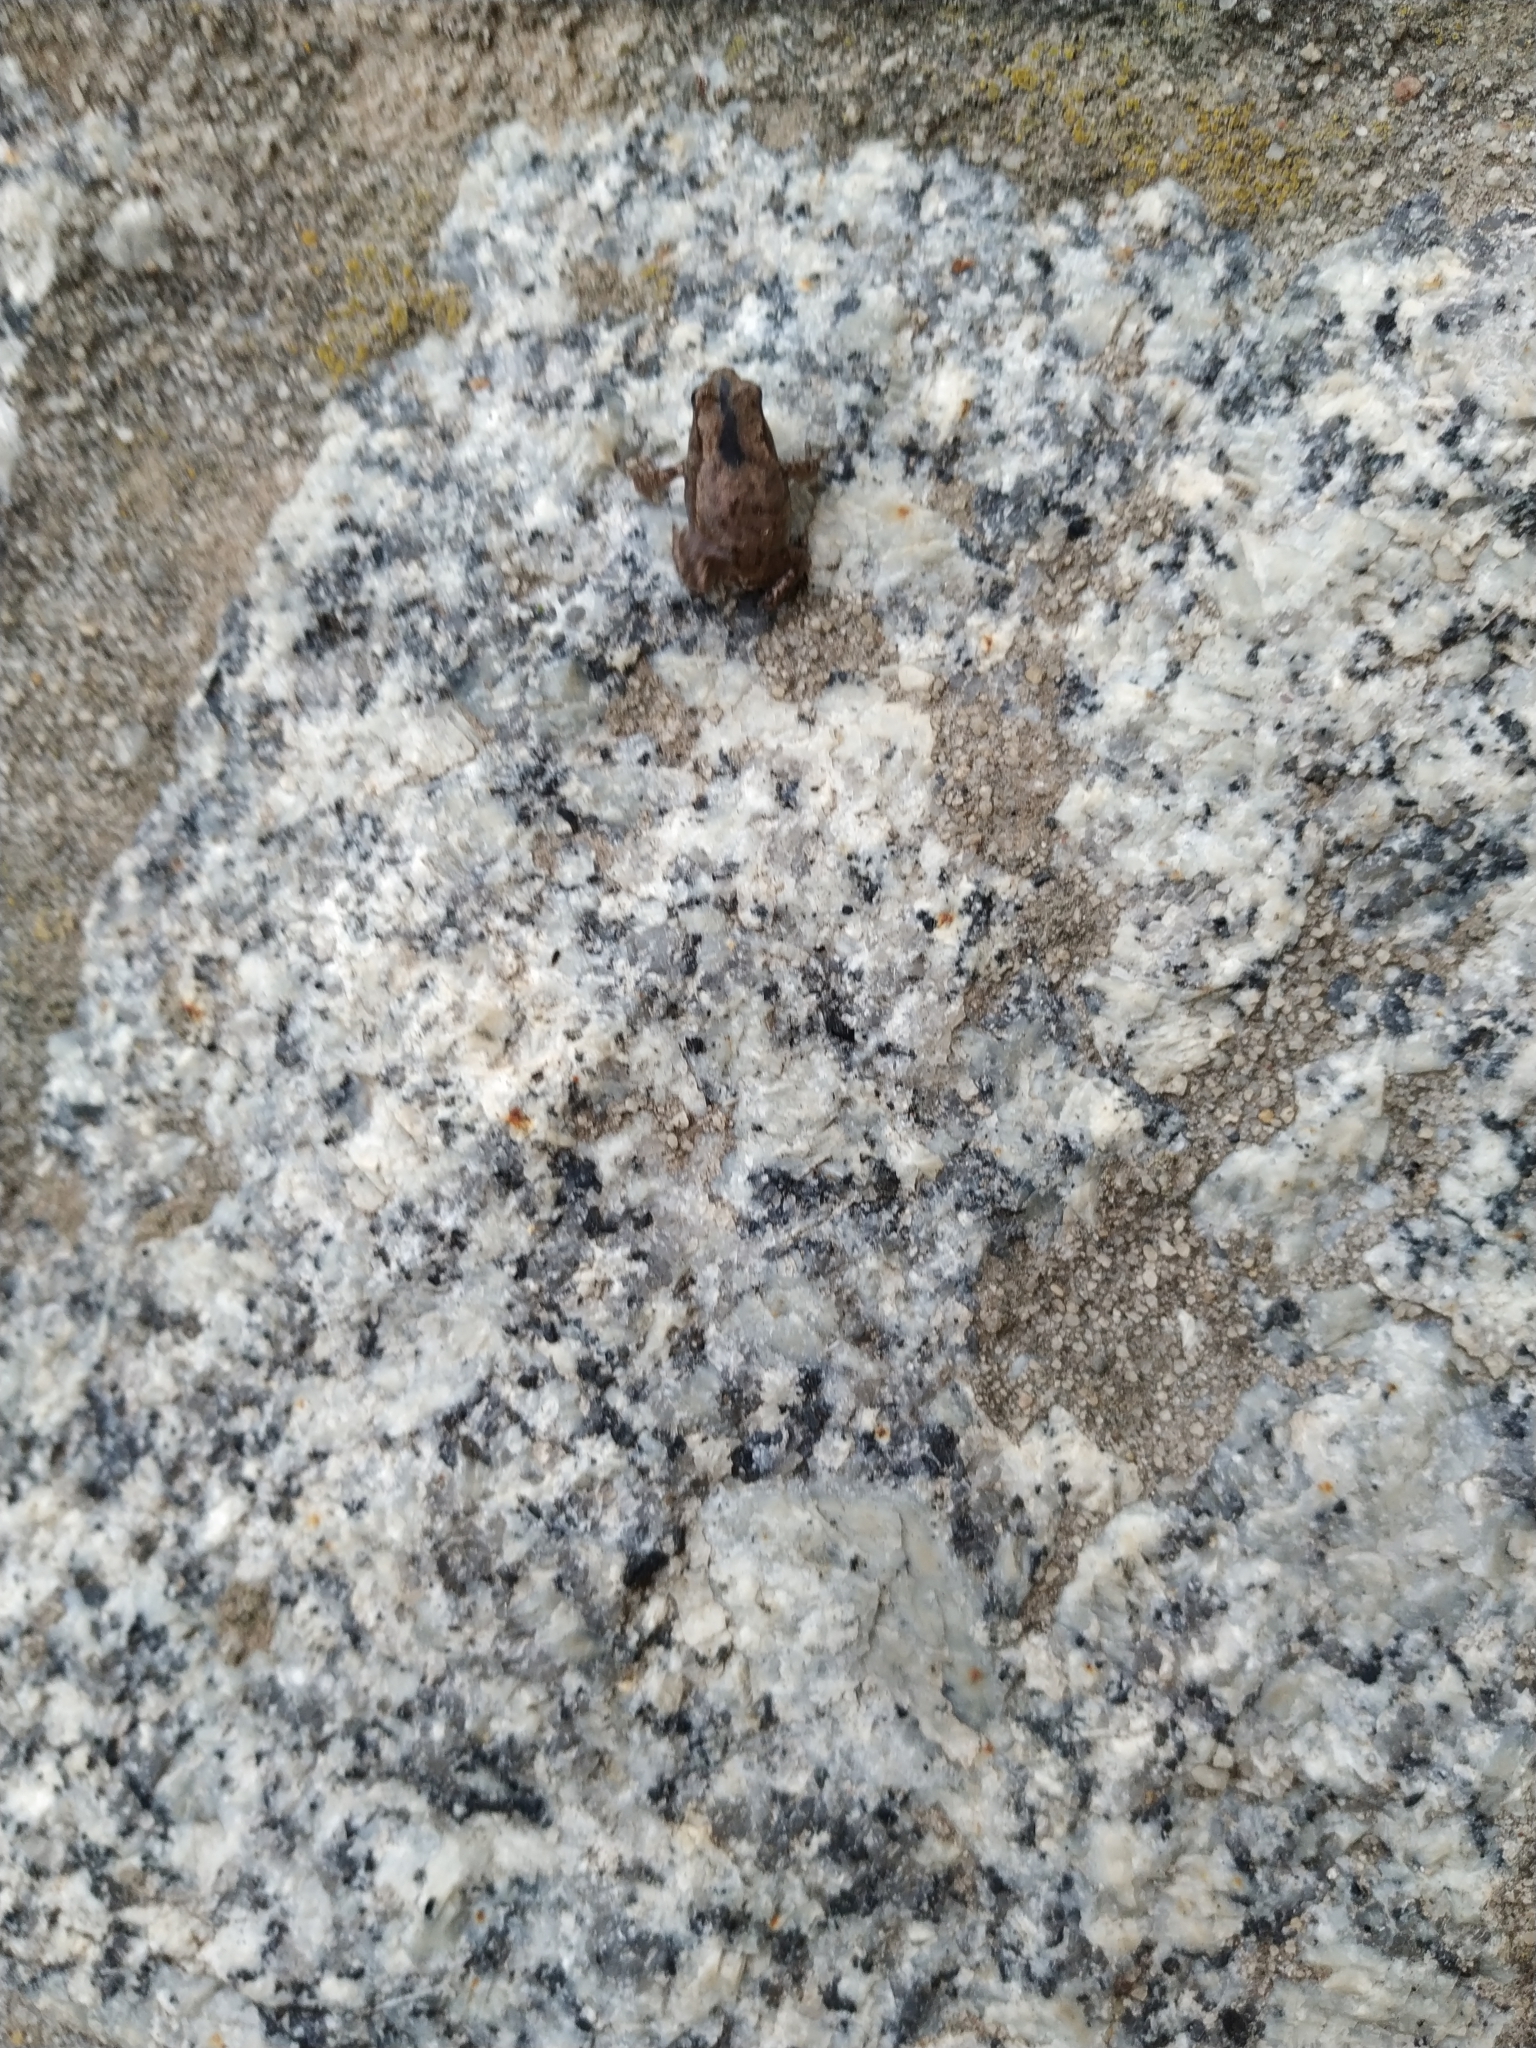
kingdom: Animalia
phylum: Chordata
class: Amphibia
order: Anura
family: Bufonidae
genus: Bufo
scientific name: Bufo bufo
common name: Common toad
